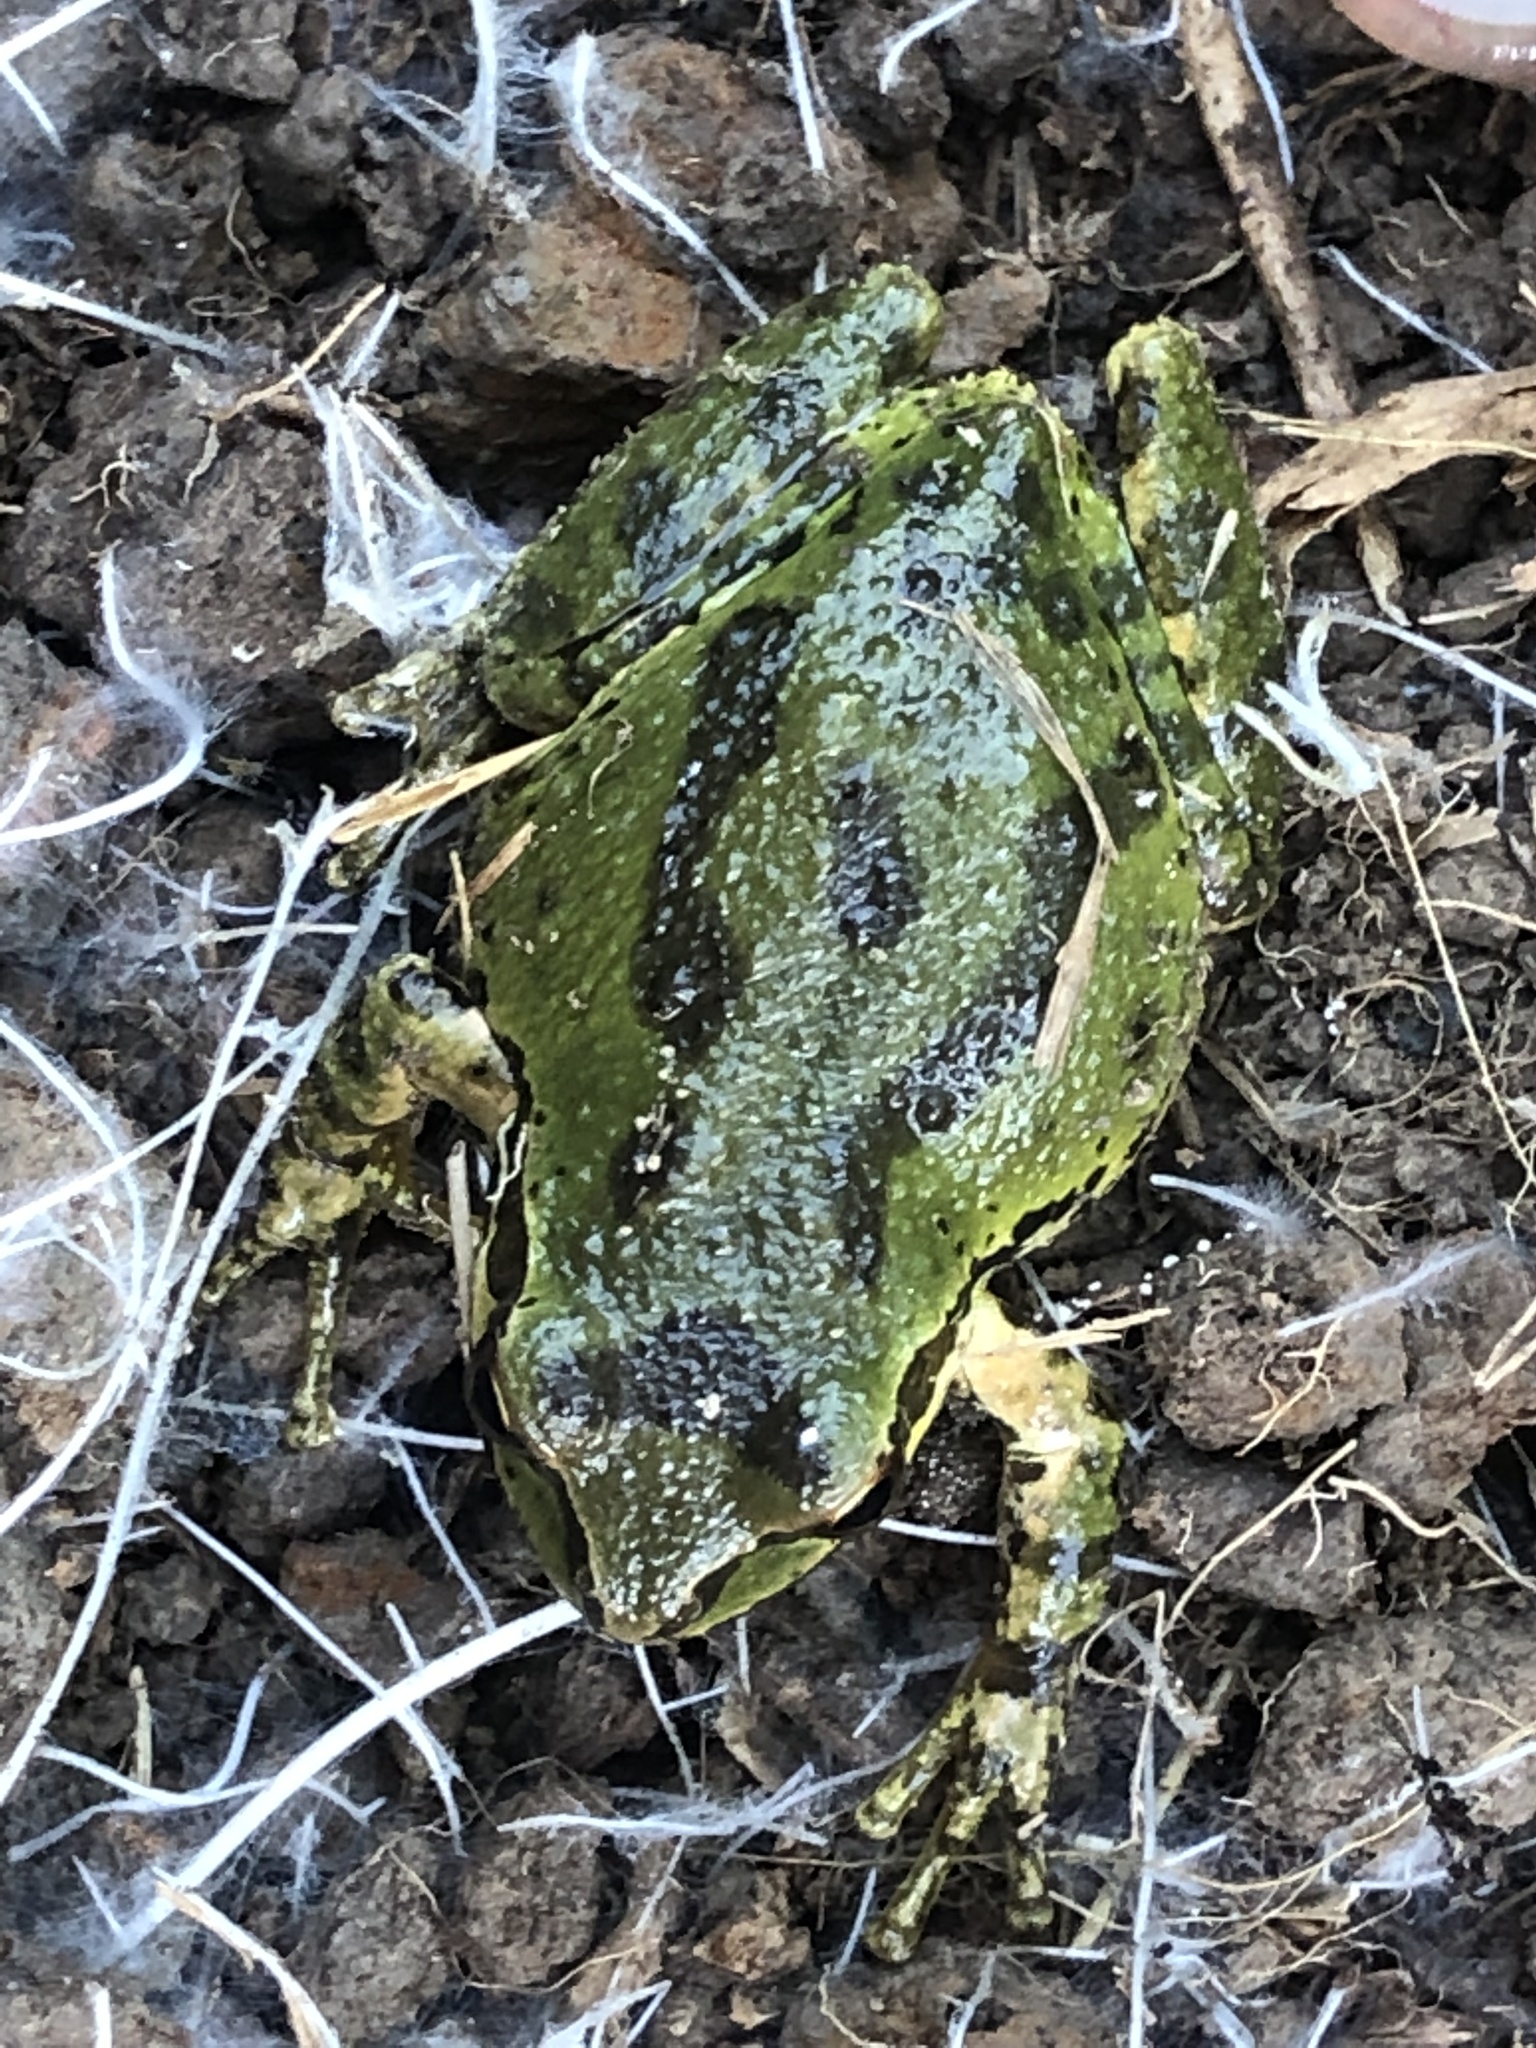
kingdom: Animalia
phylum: Chordata
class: Amphibia
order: Anura
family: Hylidae
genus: Pseudacris
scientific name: Pseudacris regilla
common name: Pacific chorus frog
